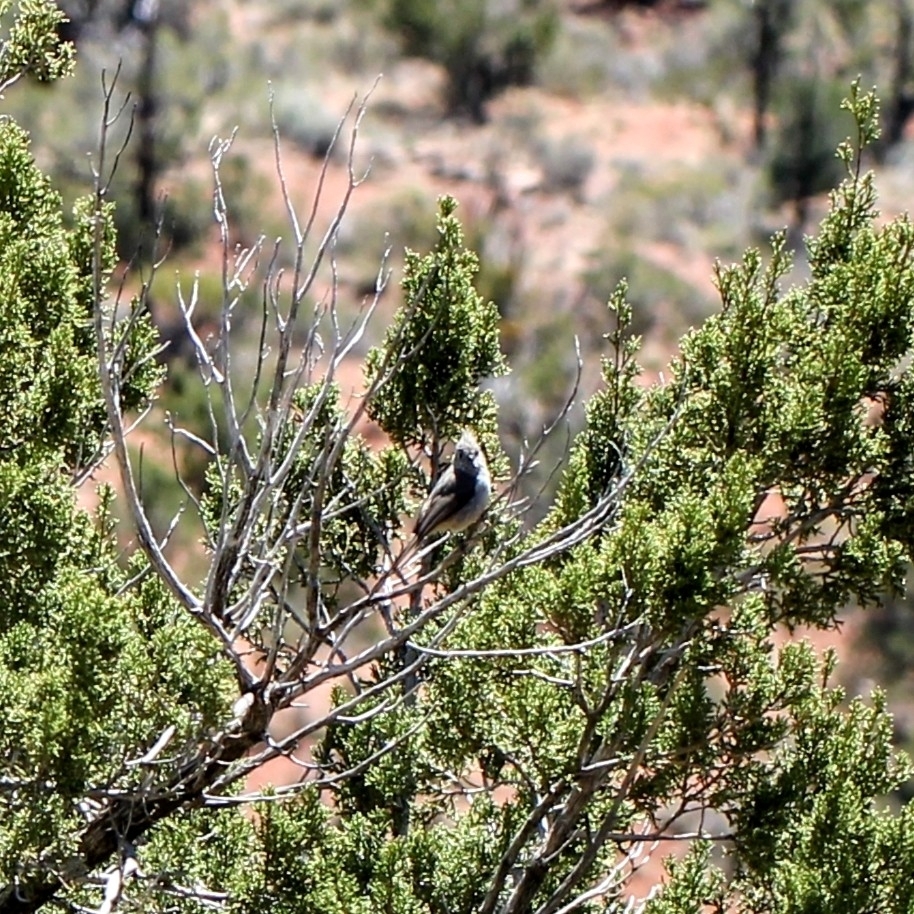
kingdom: Animalia
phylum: Chordata
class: Aves
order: Passeriformes
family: Paridae
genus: Baeolophus
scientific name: Baeolophus ridgwayi
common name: Juniper titmouse
